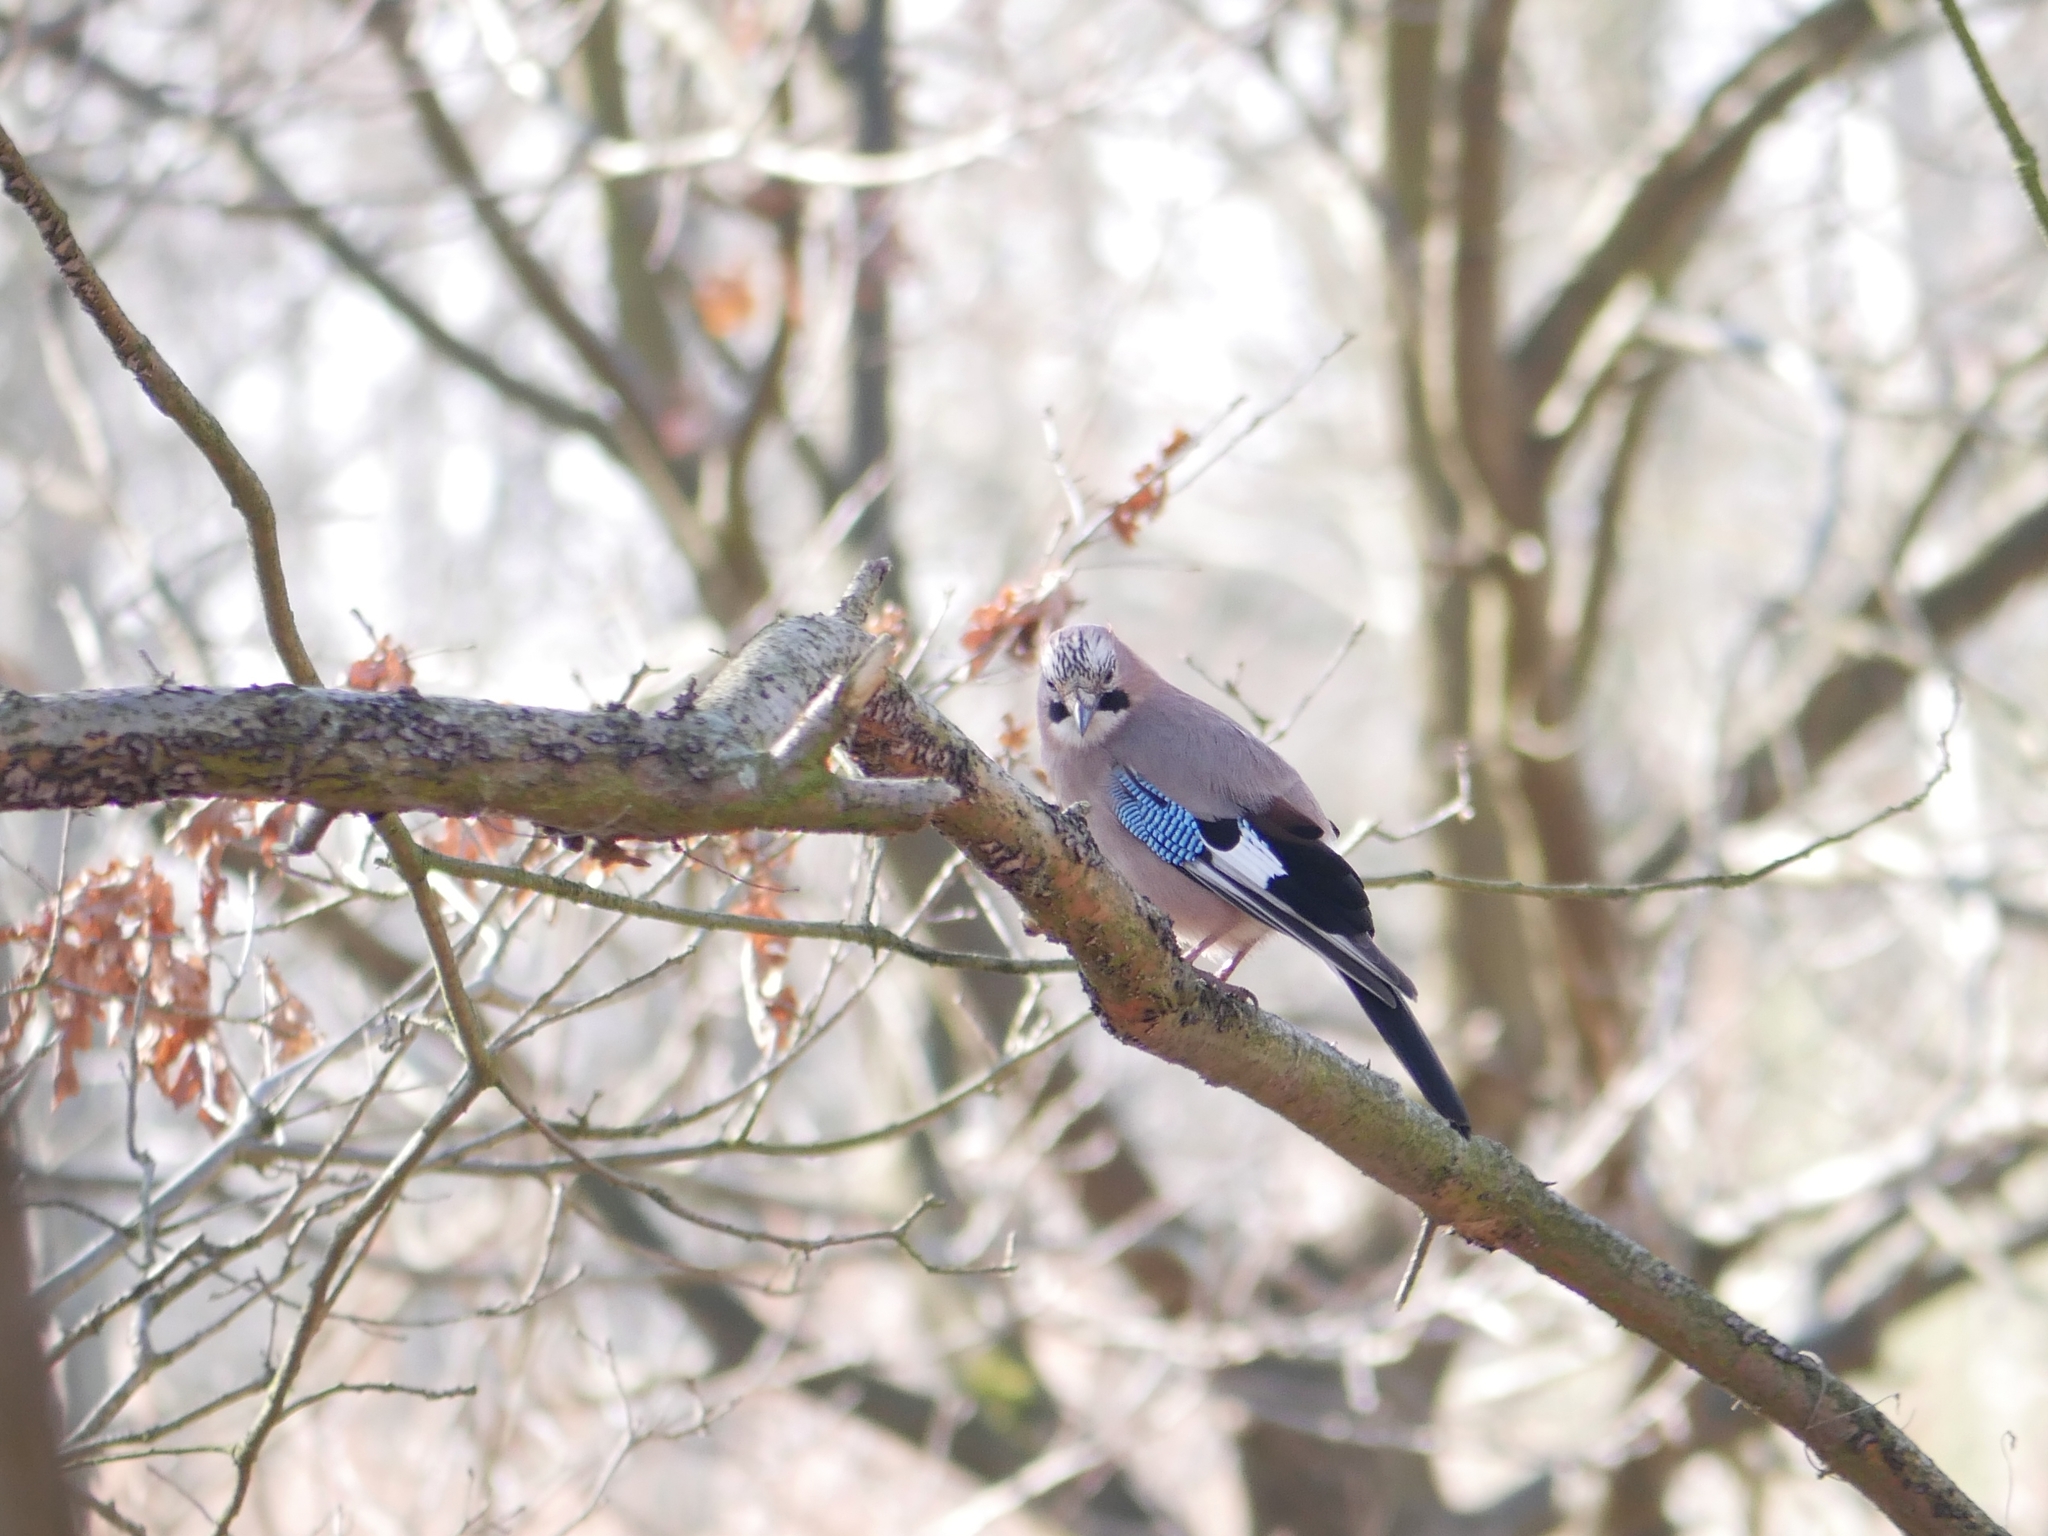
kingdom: Animalia
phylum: Chordata
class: Aves
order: Passeriformes
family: Corvidae
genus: Garrulus
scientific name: Garrulus glandarius
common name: Eurasian jay
